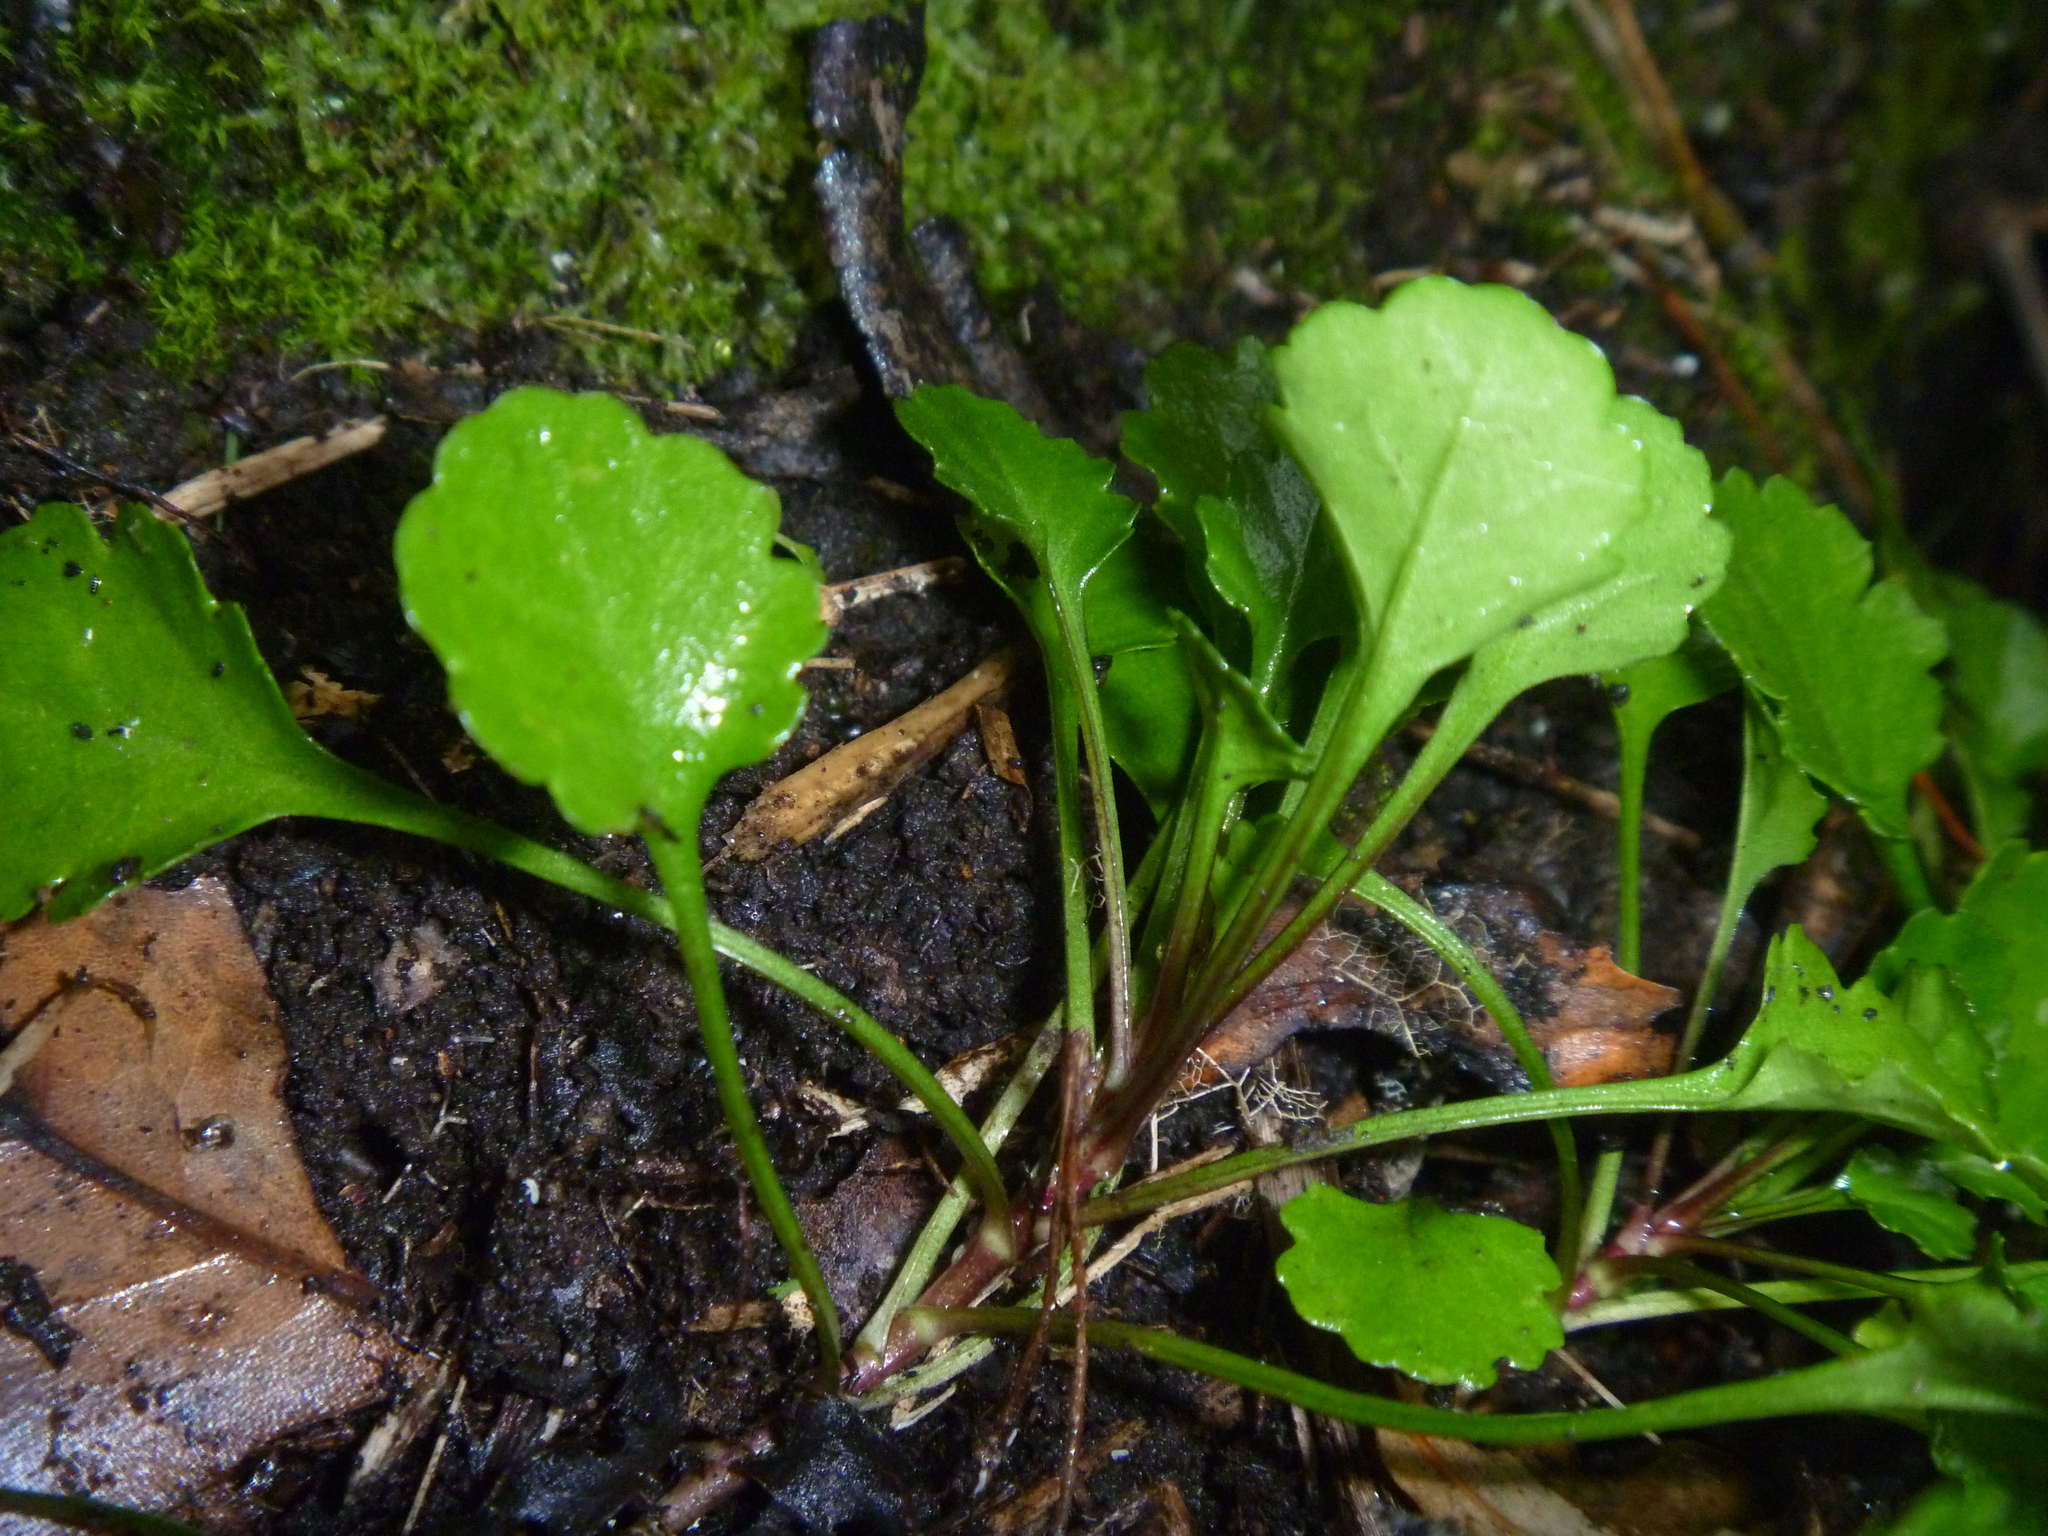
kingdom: Plantae
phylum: Tracheophyta
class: Magnoliopsida
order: Asterales
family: Asteraceae
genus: Leucanthemum
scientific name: Leucanthemum vulgare
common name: Oxeye daisy
